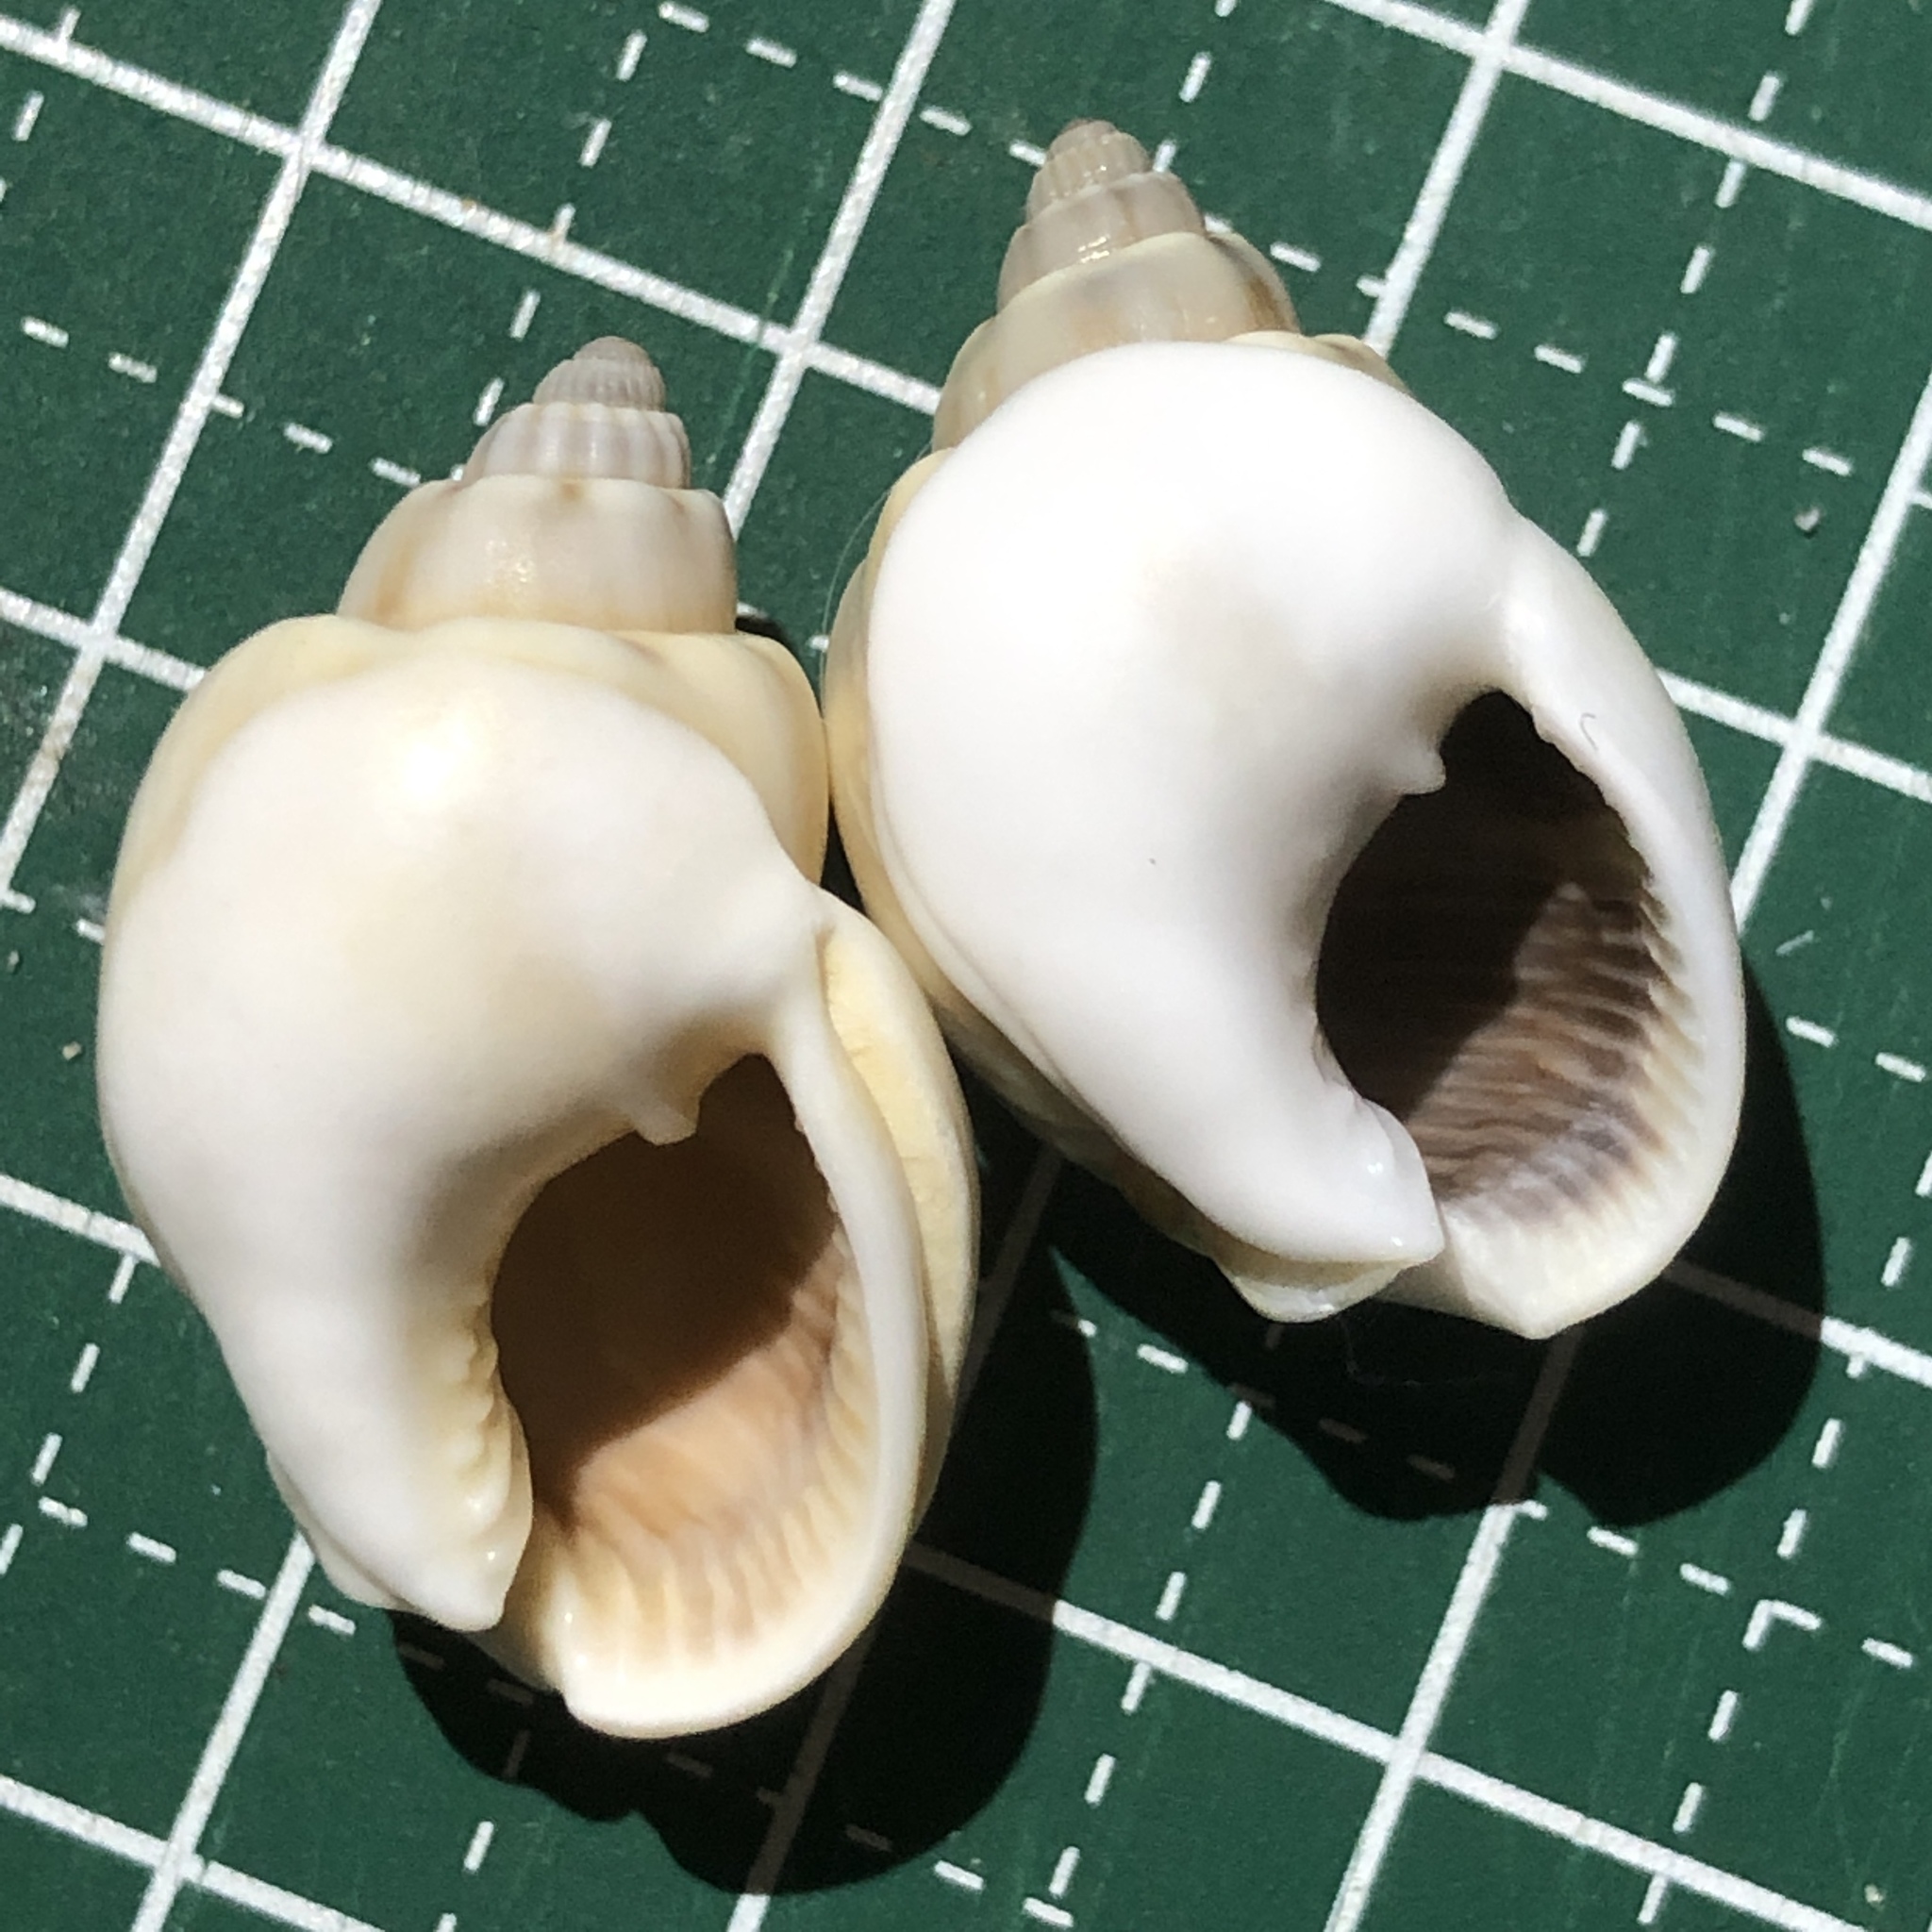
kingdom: Animalia
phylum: Mollusca
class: Gastropoda
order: Neogastropoda
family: Nassariidae
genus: Nassarius
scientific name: Nassarius coronatus
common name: Crowned nassa
